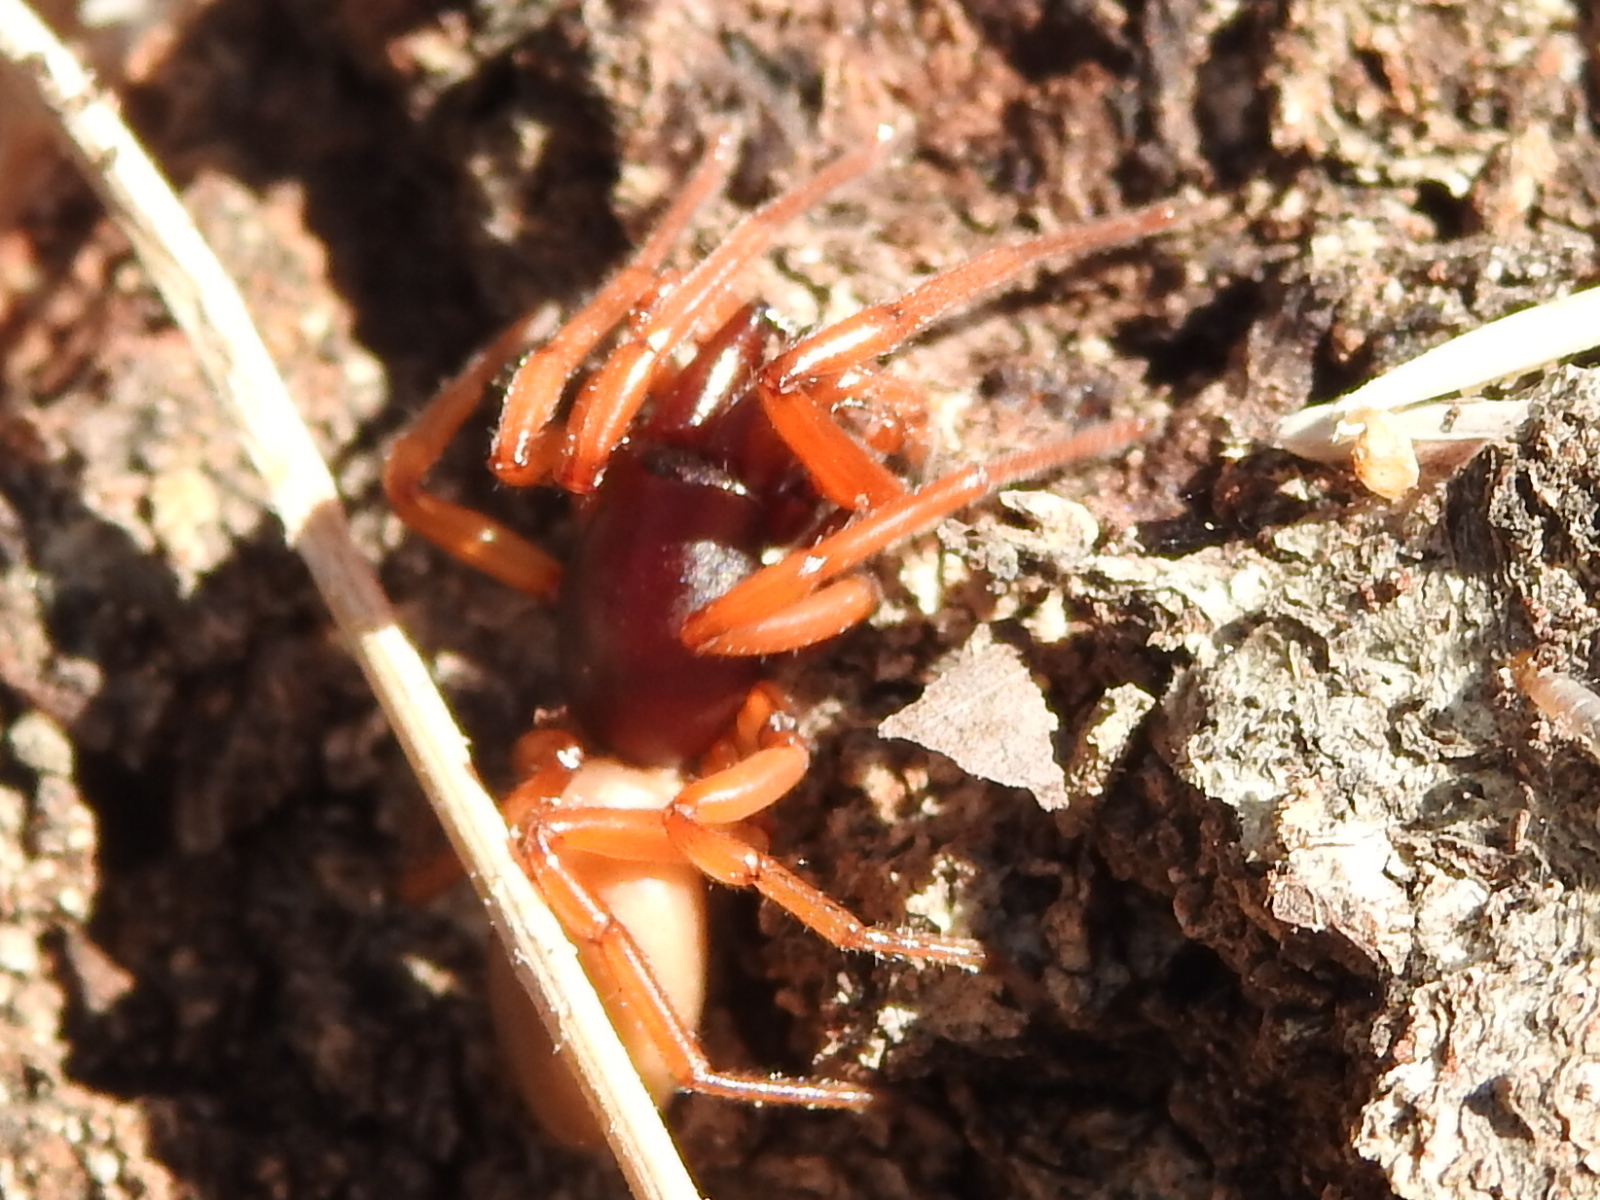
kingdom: Animalia
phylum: Arthropoda
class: Arachnida
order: Araneae
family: Dysderidae
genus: Dysdera
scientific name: Dysdera crocata
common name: Woodlouse spider
